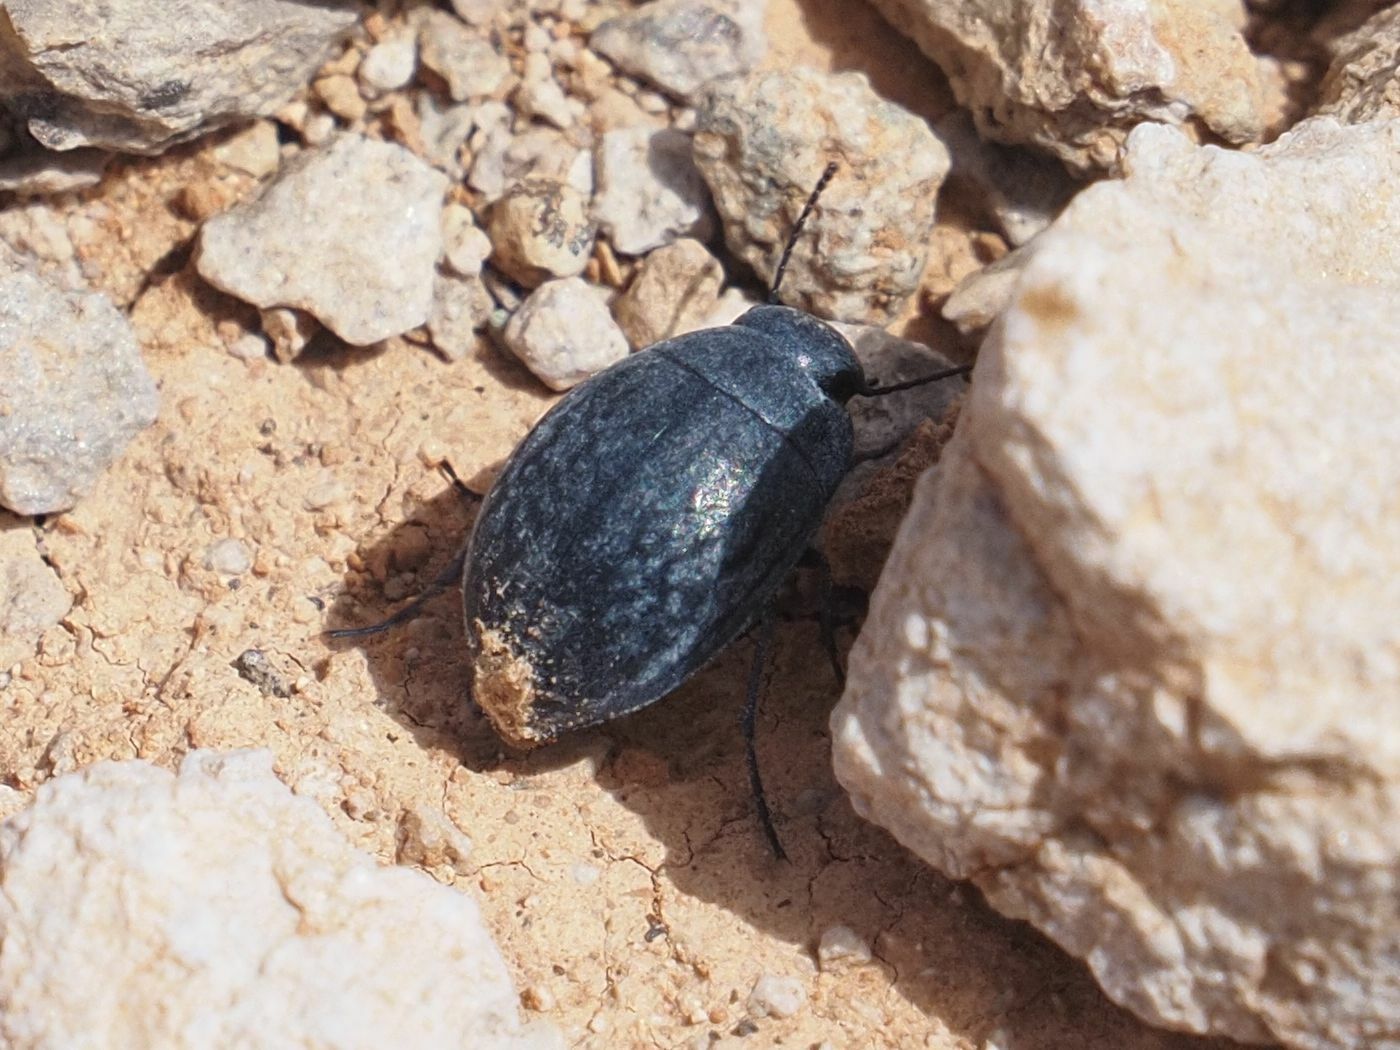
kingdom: Animalia
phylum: Arthropoda
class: Insecta
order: Coleoptera
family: Tenebrionidae
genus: Zophosis
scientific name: Zophosis bicarinata
